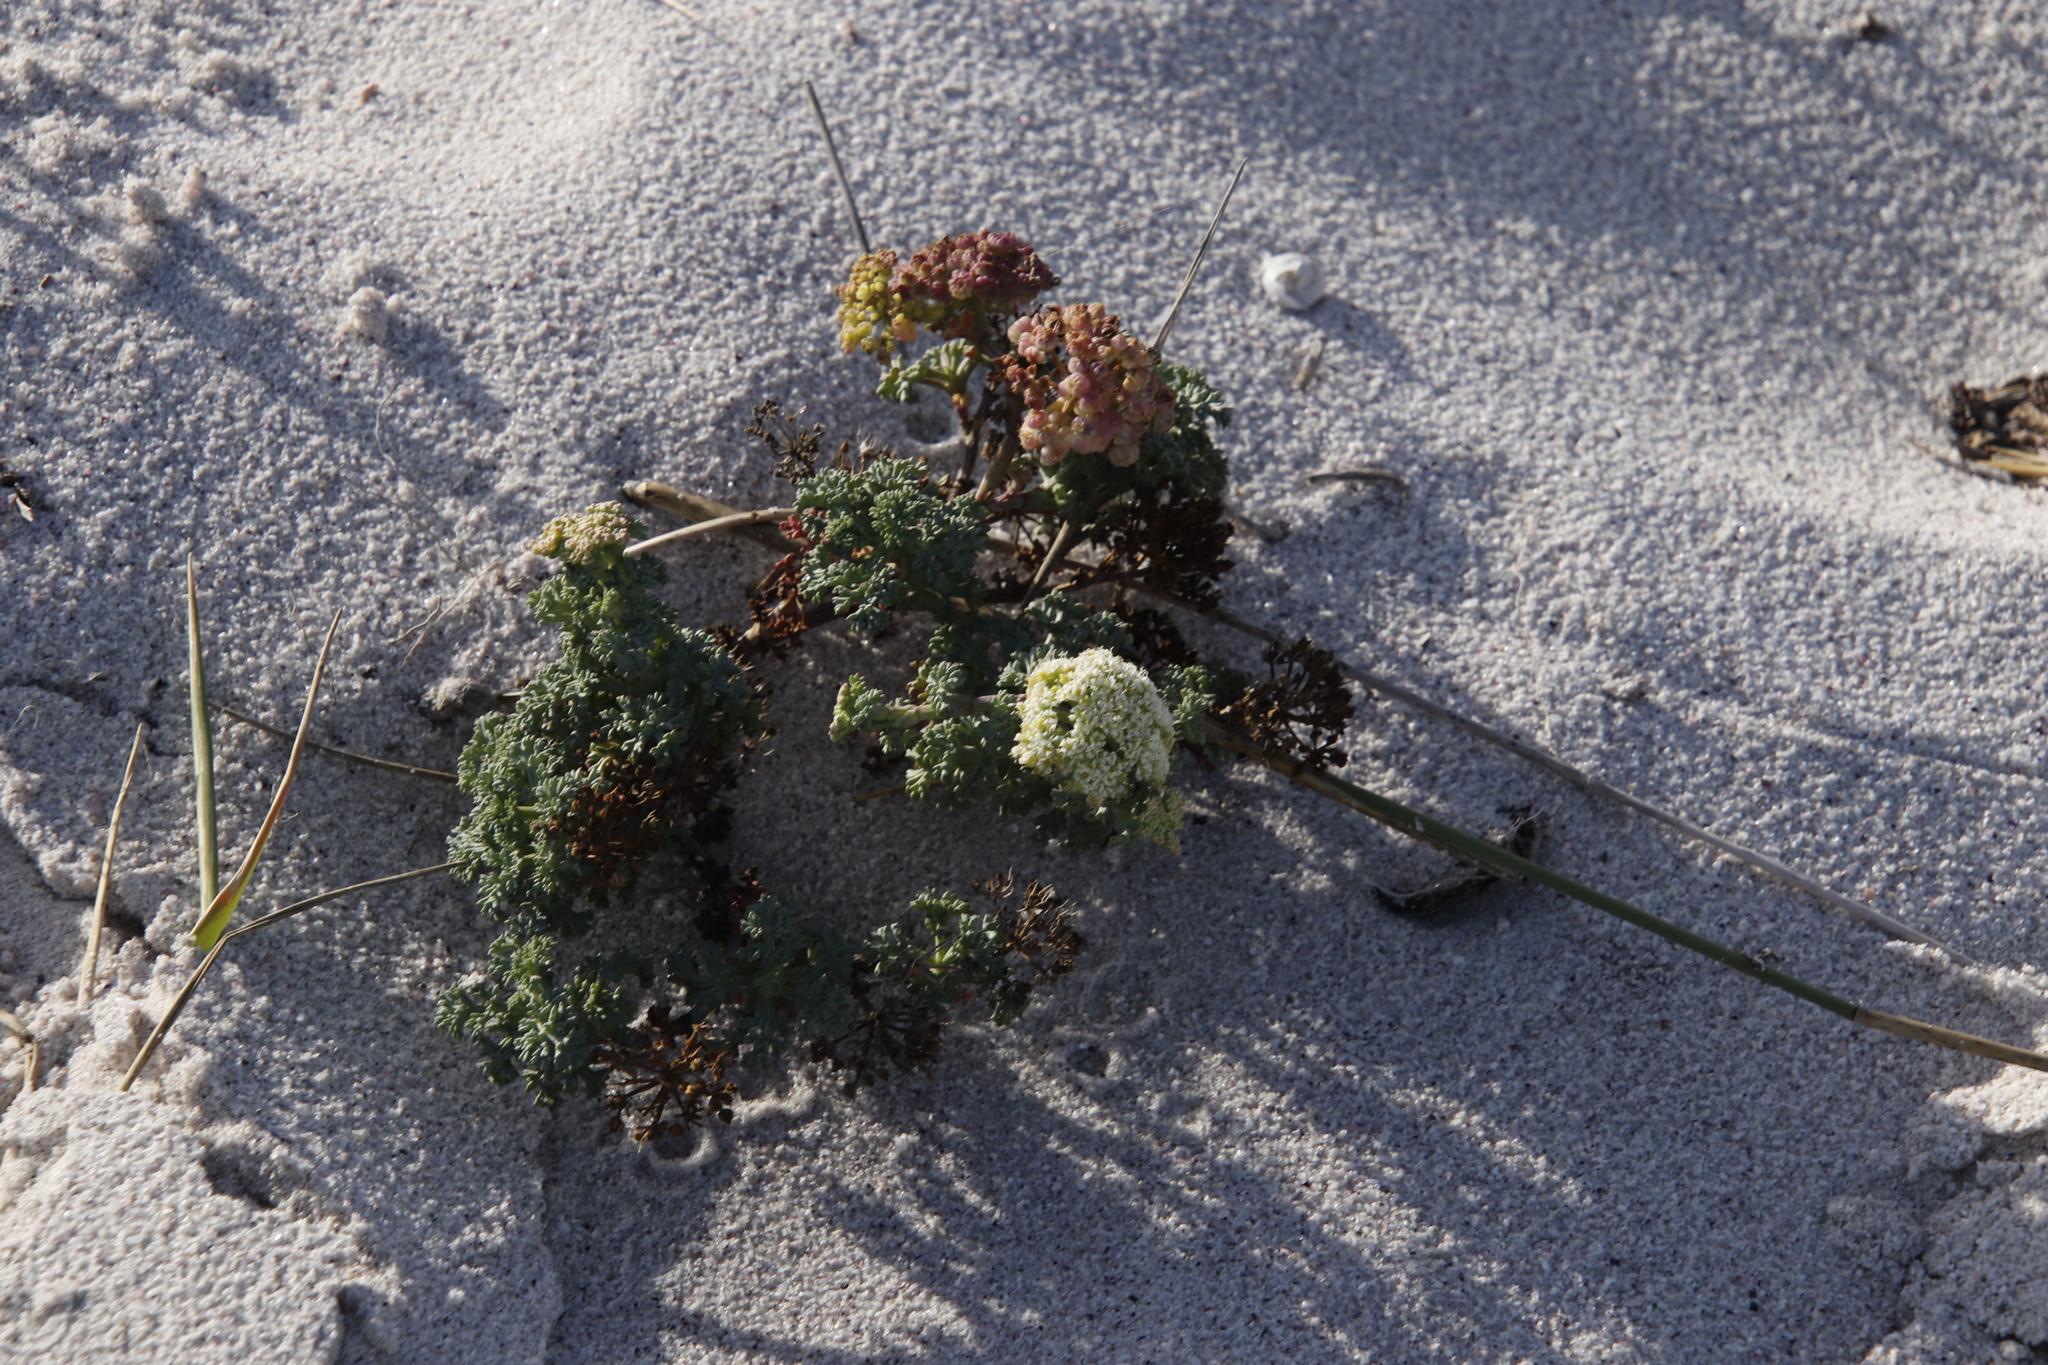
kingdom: Plantae
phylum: Tracheophyta
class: Magnoliopsida
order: Apiales
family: Apiaceae
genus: Dasispermum
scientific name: Dasispermum suffruticosum
